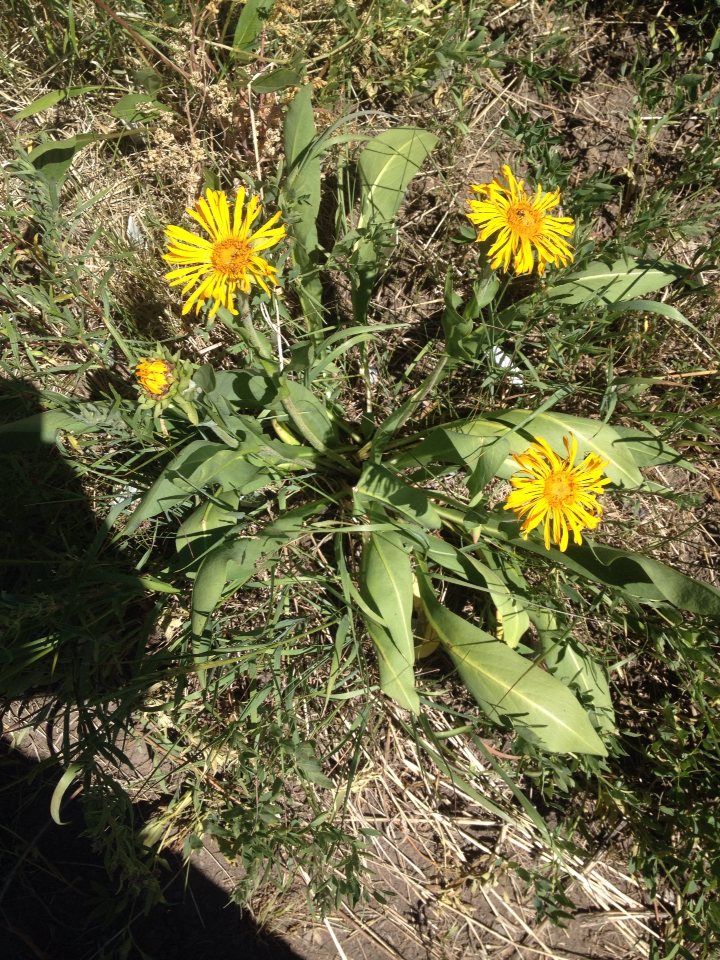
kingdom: Plantae
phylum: Tracheophyta
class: Magnoliopsida
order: Asterales
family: Asteraceae
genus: Pyrrocoma
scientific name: Pyrrocoma crocea
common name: Curly-head goldenweed
